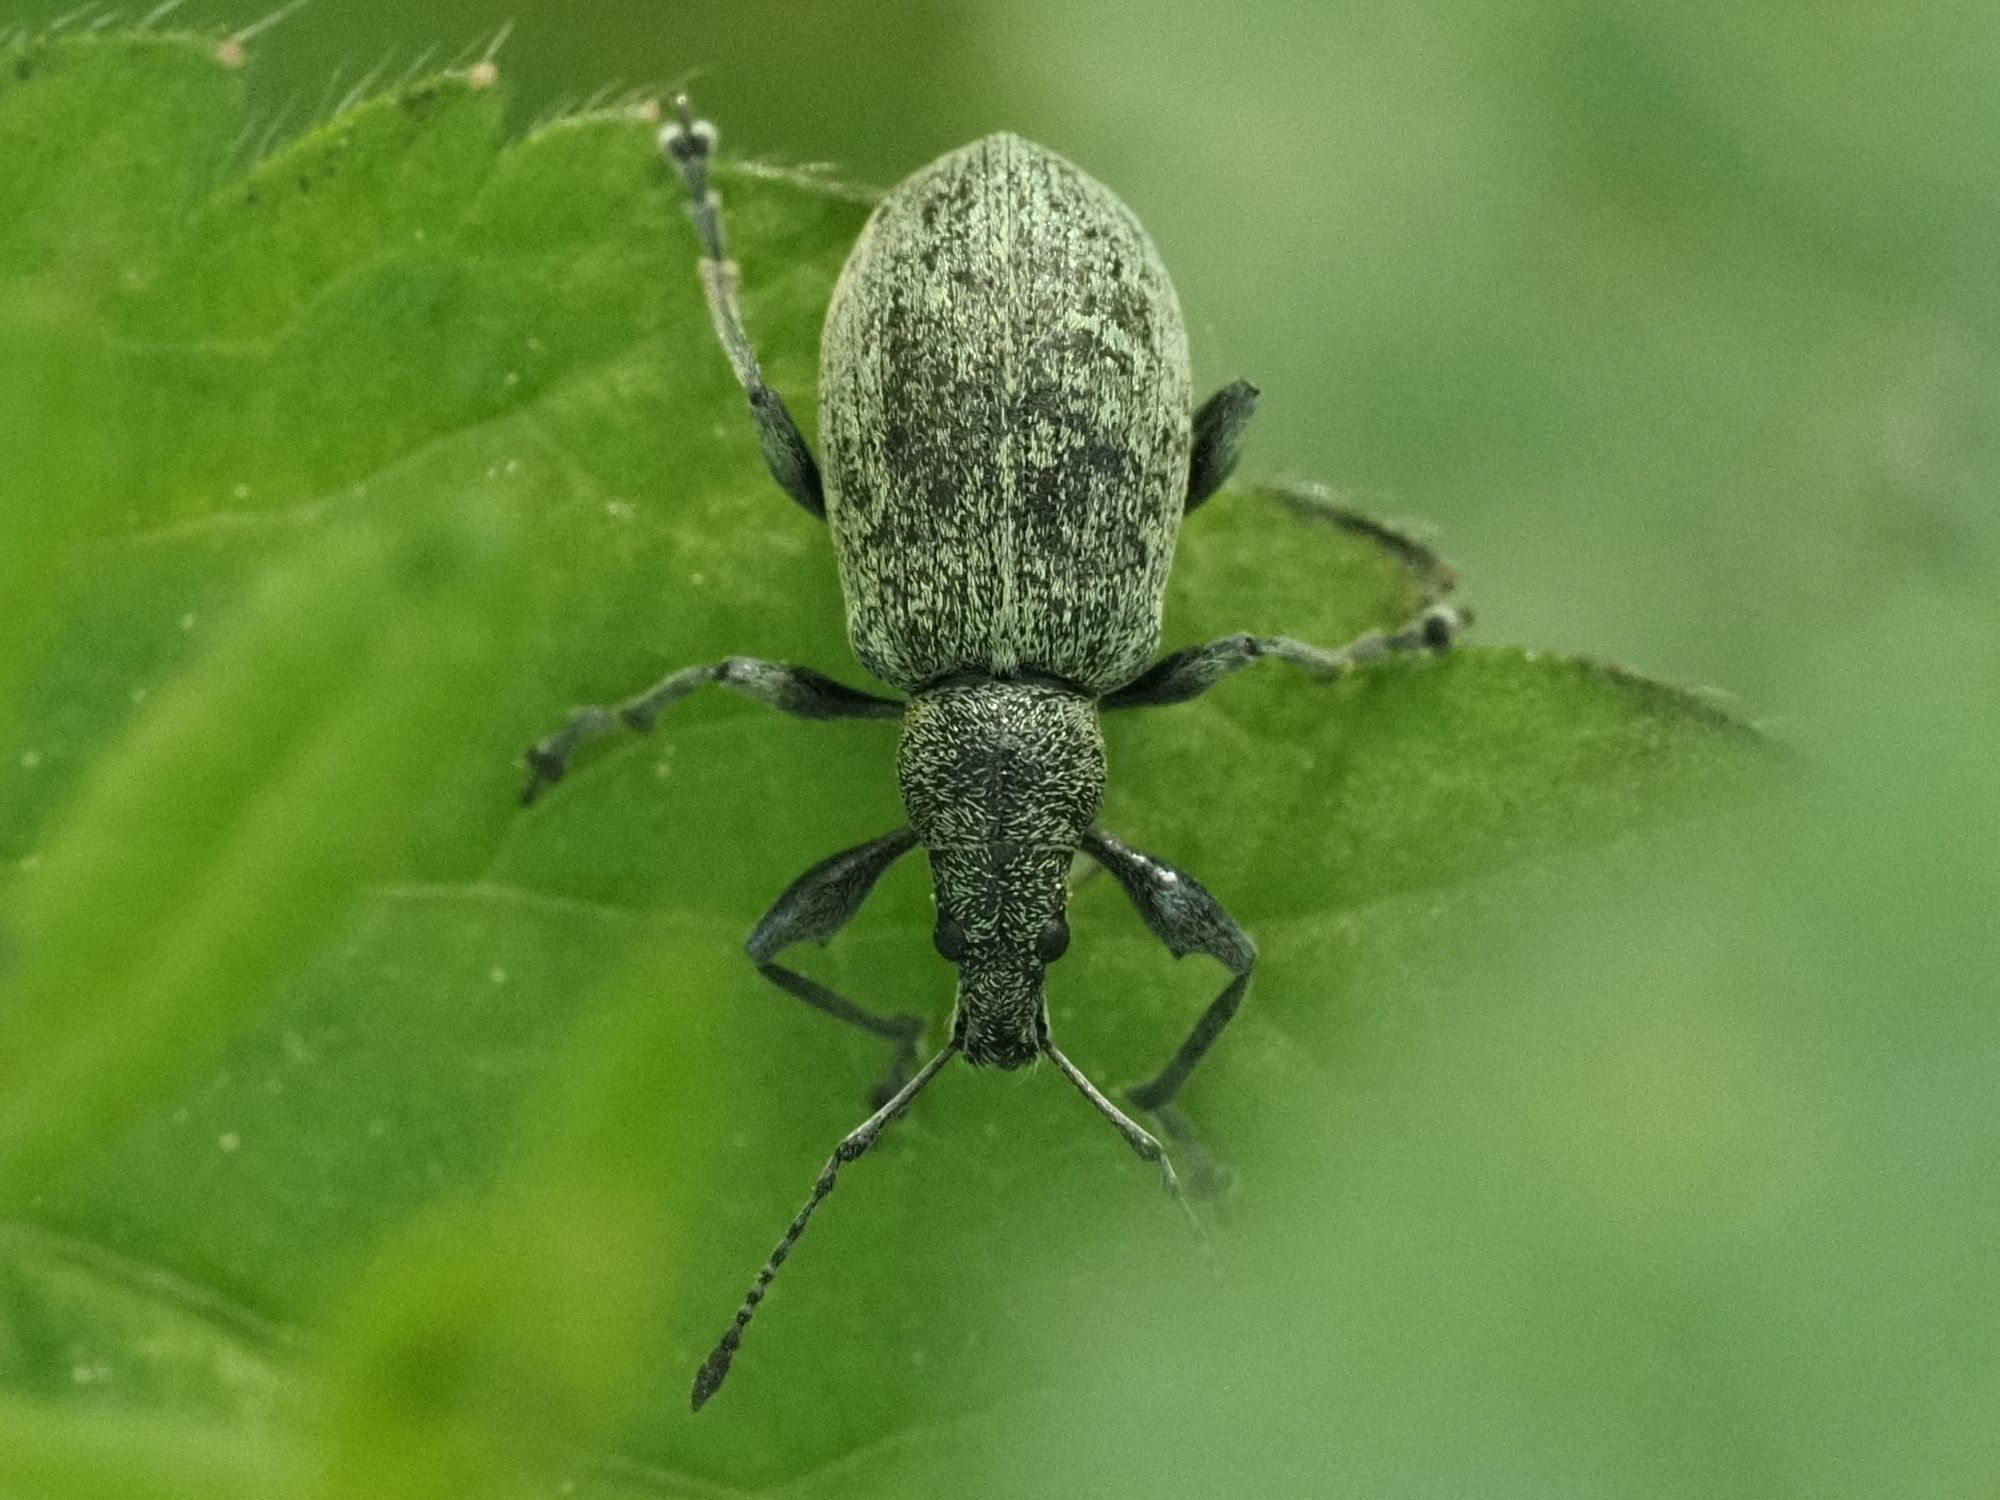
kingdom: Animalia
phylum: Arthropoda
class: Insecta
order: Coleoptera
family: Curculionidae
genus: Phyllobius
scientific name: Phyllobius pomaceus
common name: Green nettle weevil
